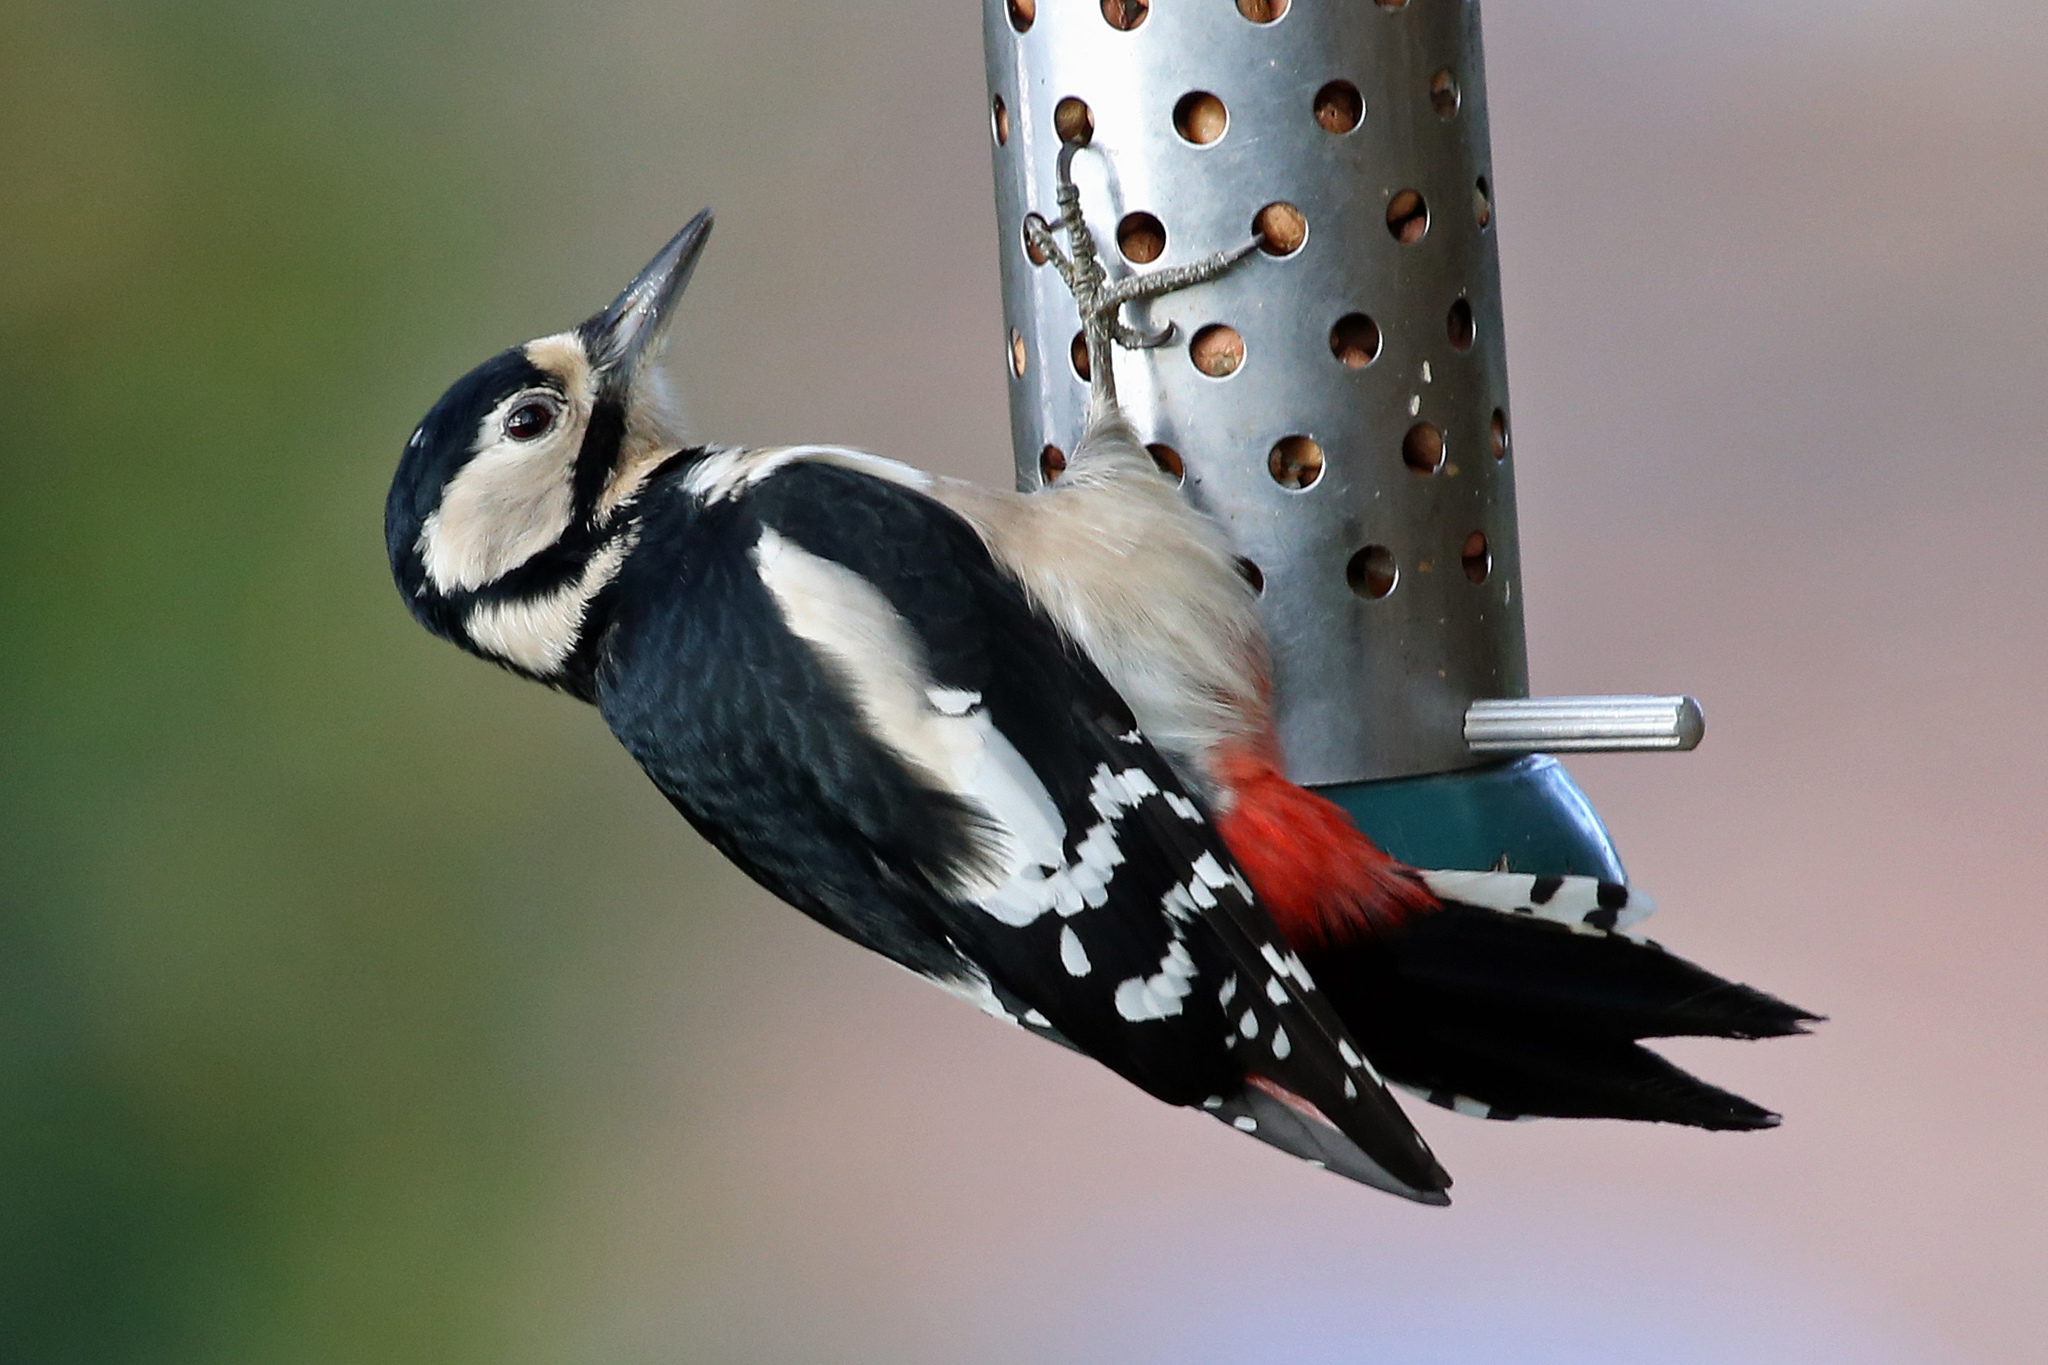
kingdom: Animalia
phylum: Chordata
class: Aves
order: Piciformes
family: Picidae
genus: Dendrocopos
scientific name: Dendrocopos major
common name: Great spotted woodpecker
